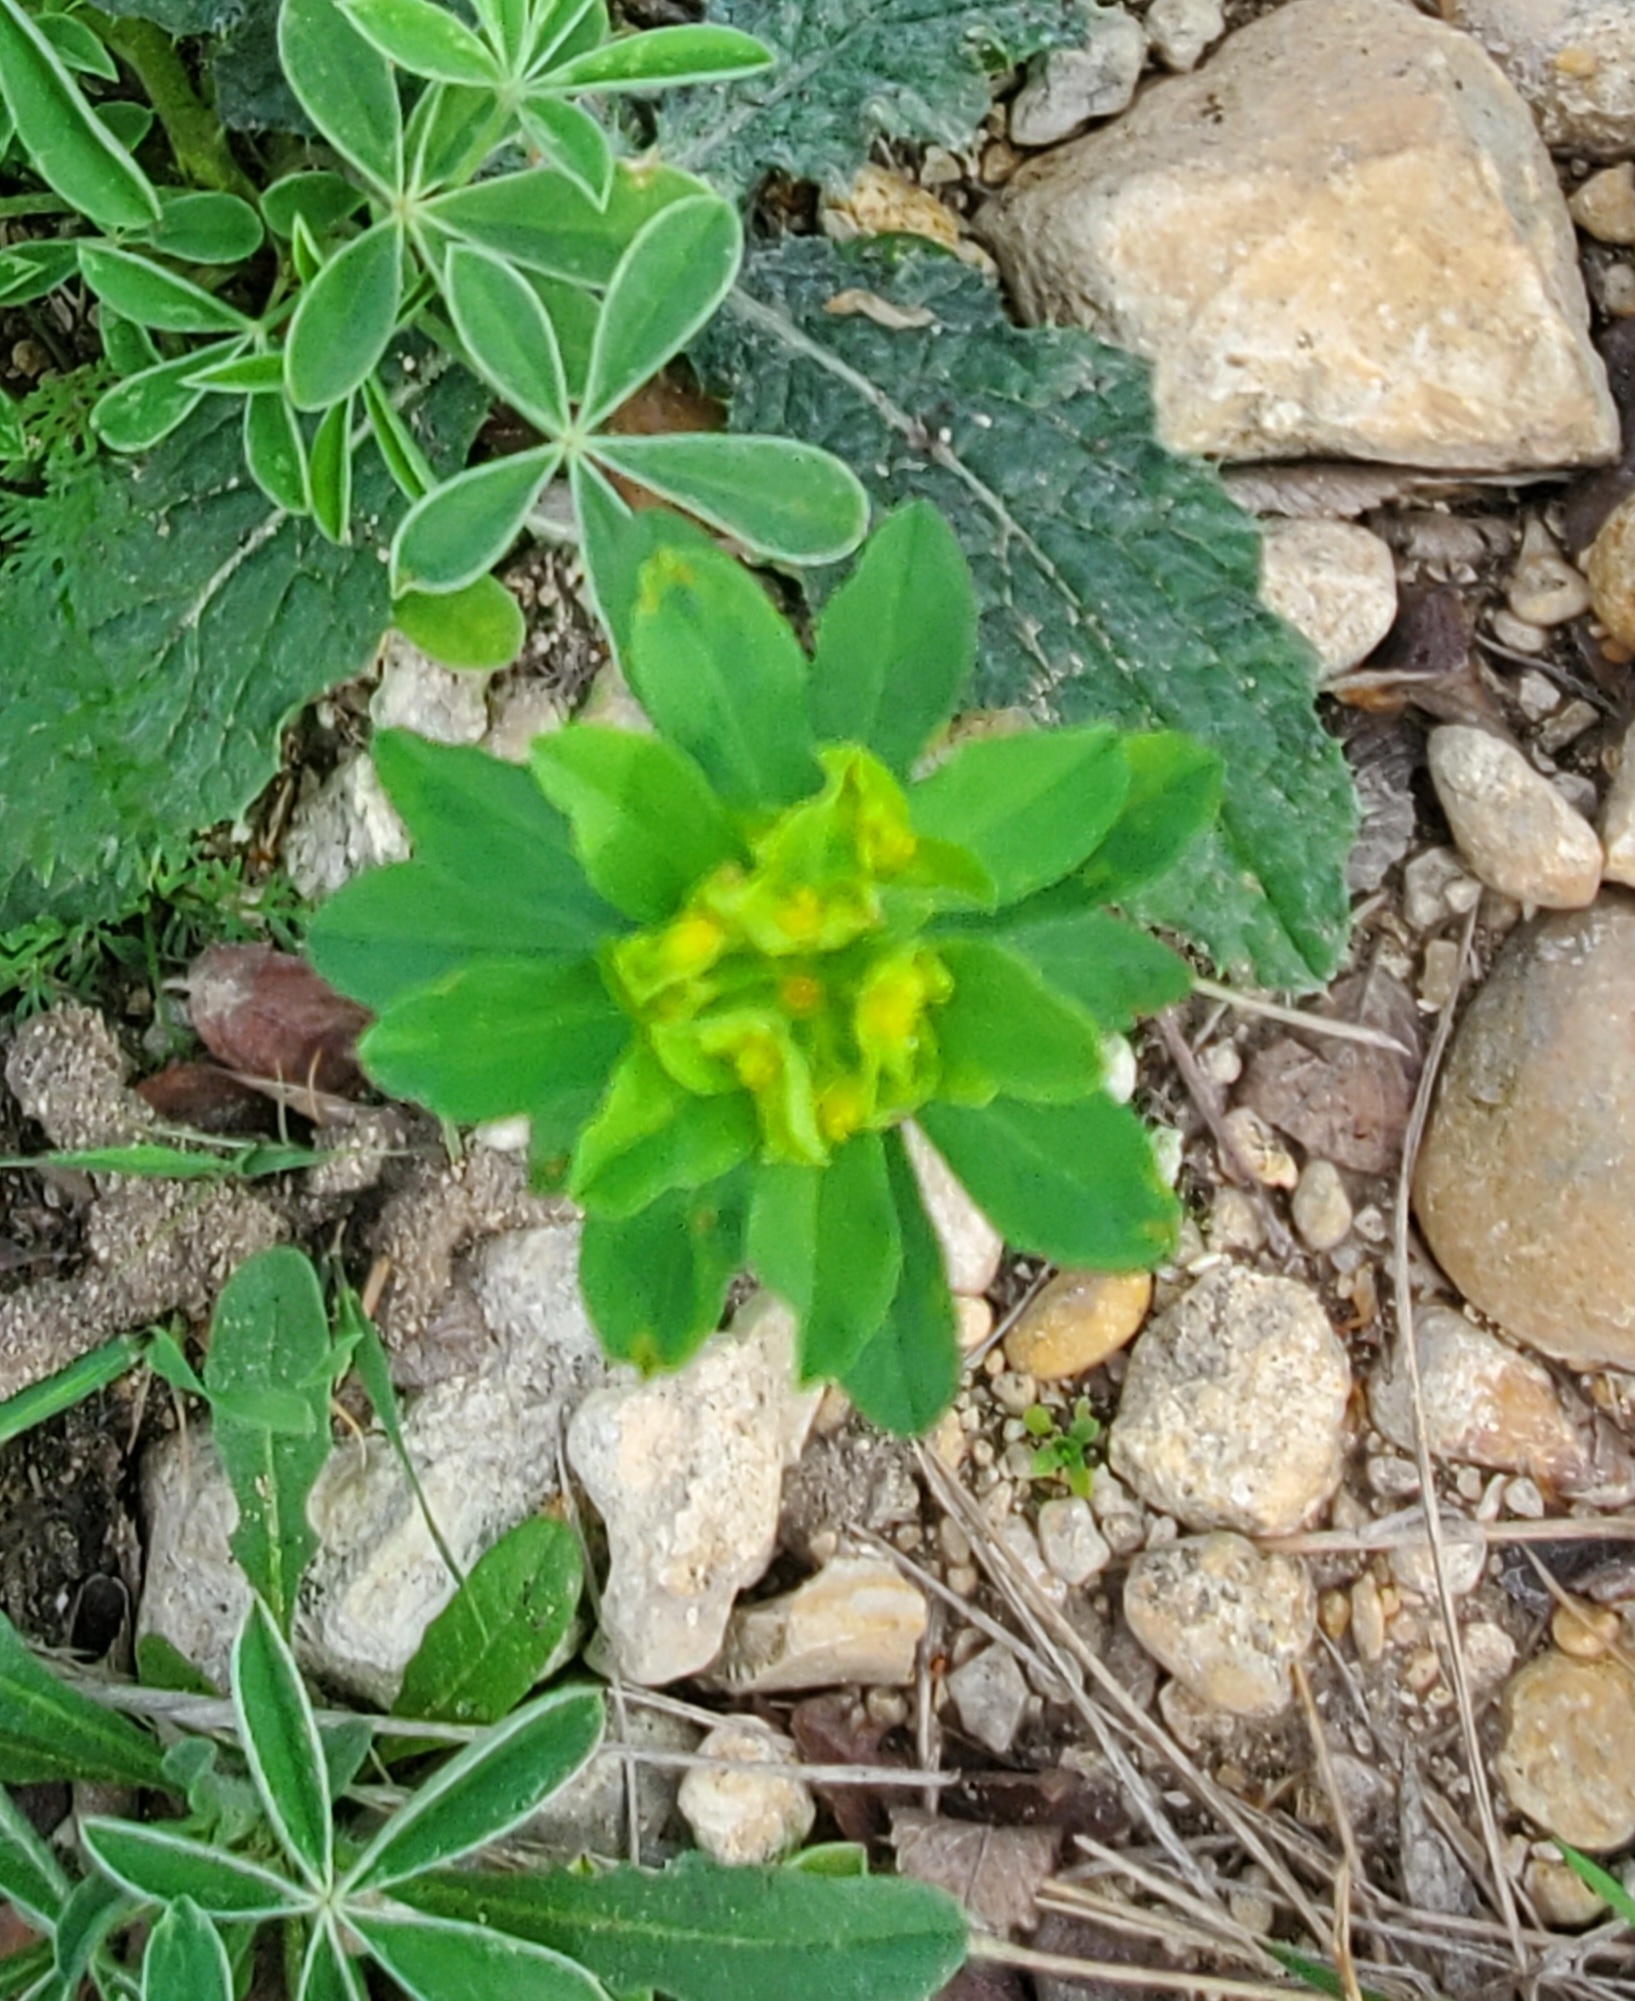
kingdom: Plantae
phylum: Tracheophyta
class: Magnoliopsida
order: Malpighiales
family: Euphorbiaceae
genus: Euphorbia
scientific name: Euphorbia spathulata
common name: Blunt spurge
